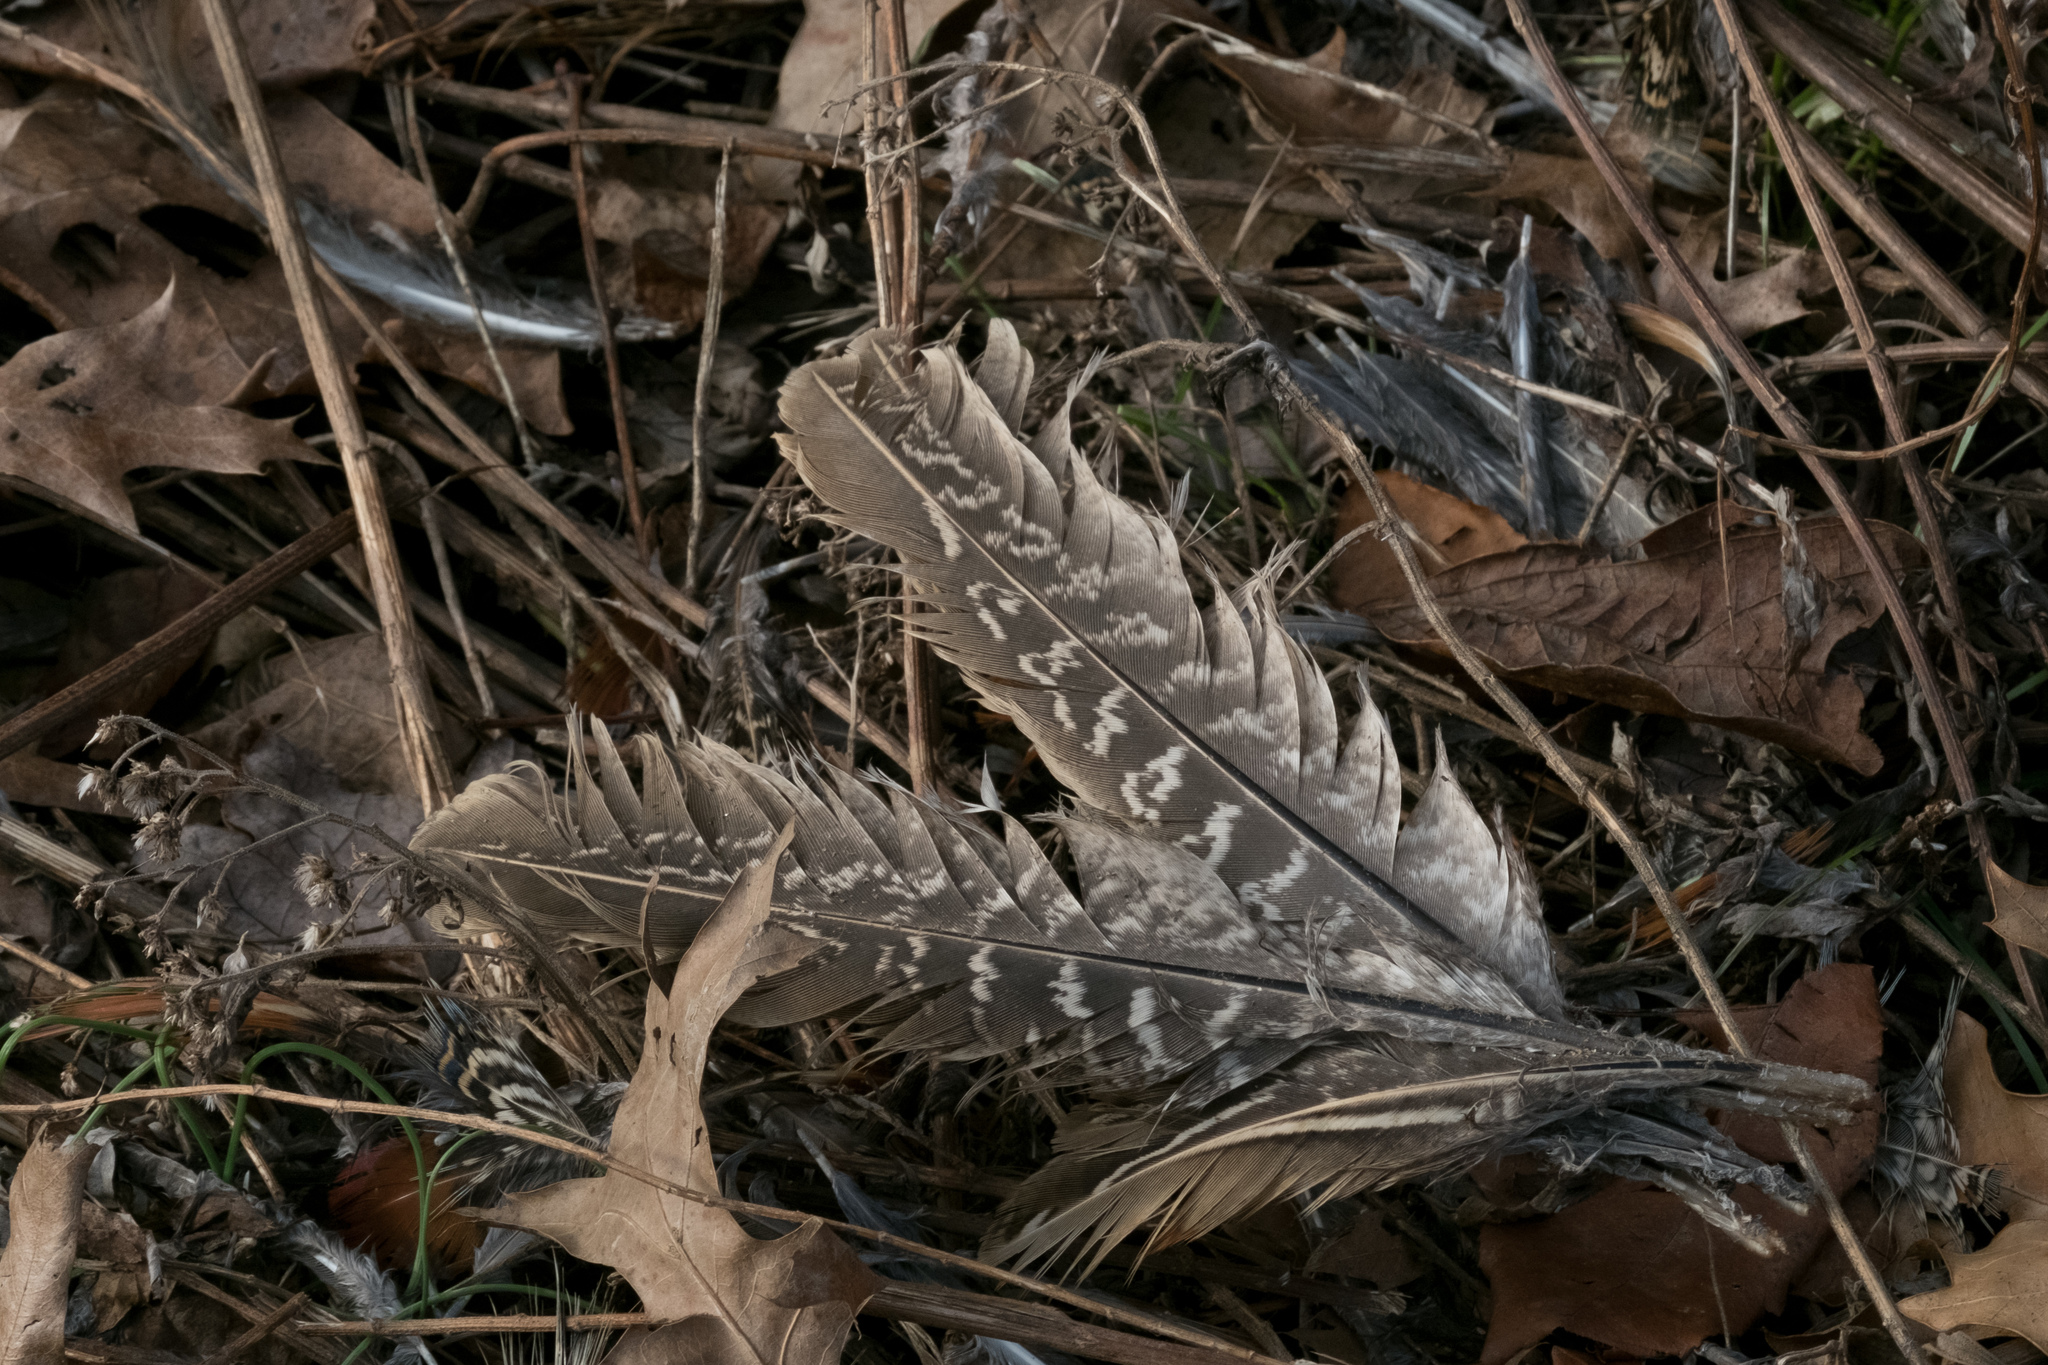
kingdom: Animalia
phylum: Chordata
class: Aves
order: Galliformes
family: Phasianidae
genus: Phasianus
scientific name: Phasianus colchicus
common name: Common pheasant
